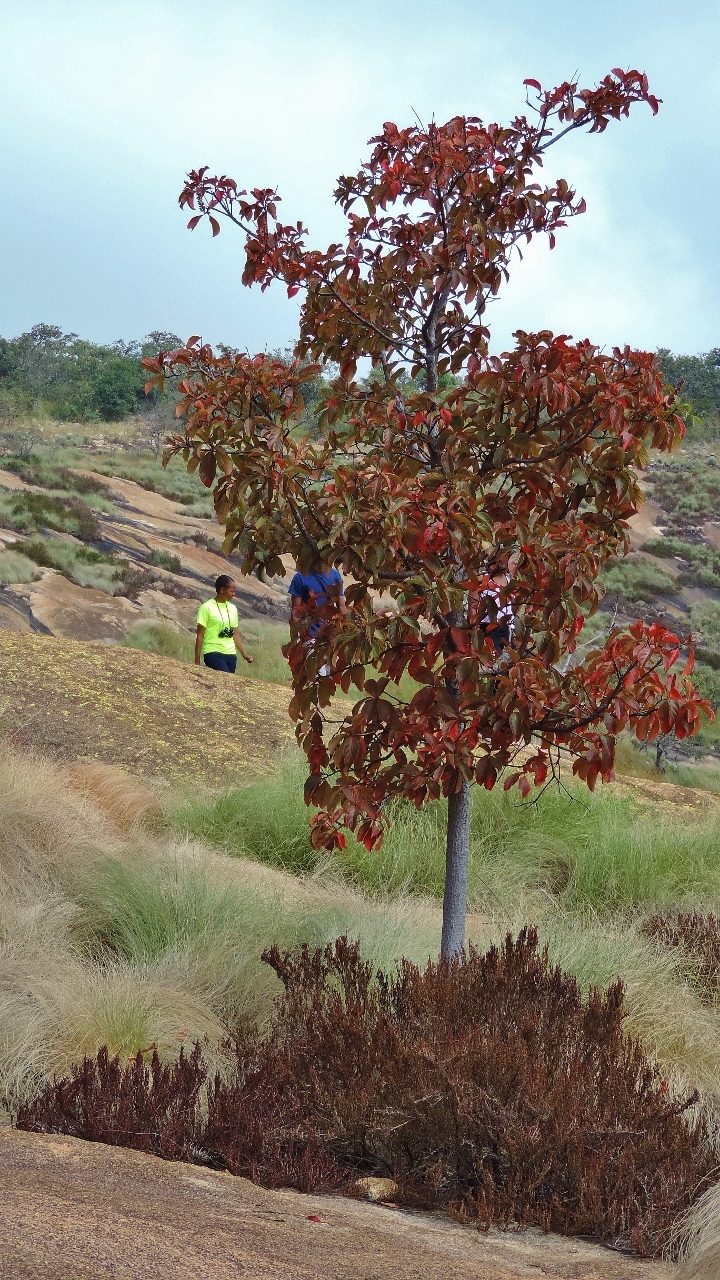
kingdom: Plantae
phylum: Tracheophyta
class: Magnoliopsida
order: Gentianales
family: Rubiaceae
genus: Hymenodictyon
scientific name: Hymenodictyon floribundum
